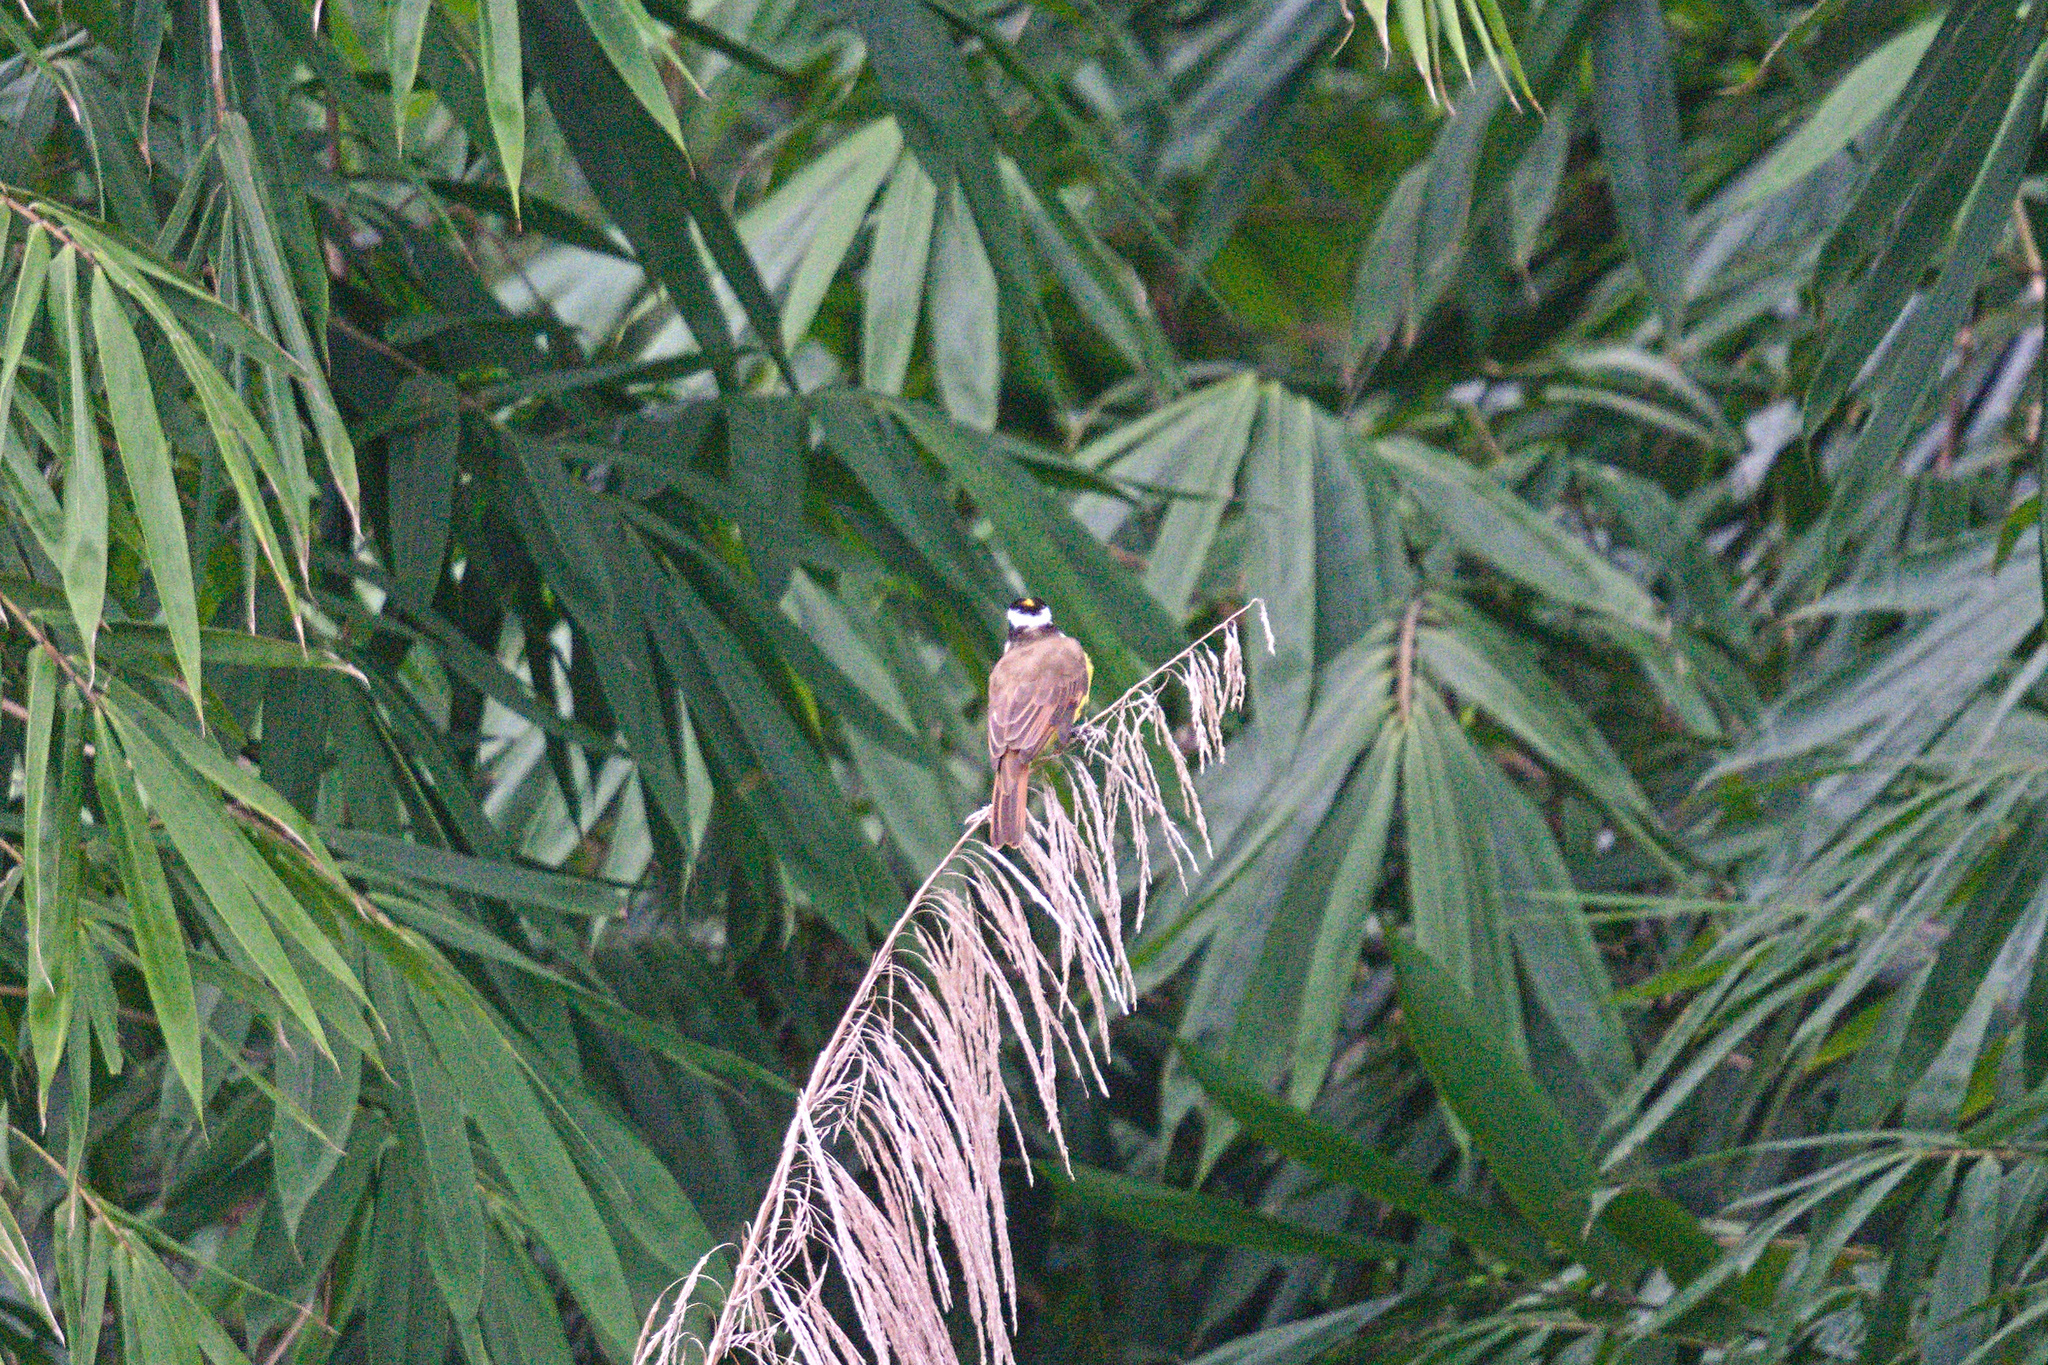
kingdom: Animalia
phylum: Chordata
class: Aves
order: Passeriformes
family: Tyrannidae
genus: Pitangus
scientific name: Pitangus sulphuratus
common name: Great kiskadee
